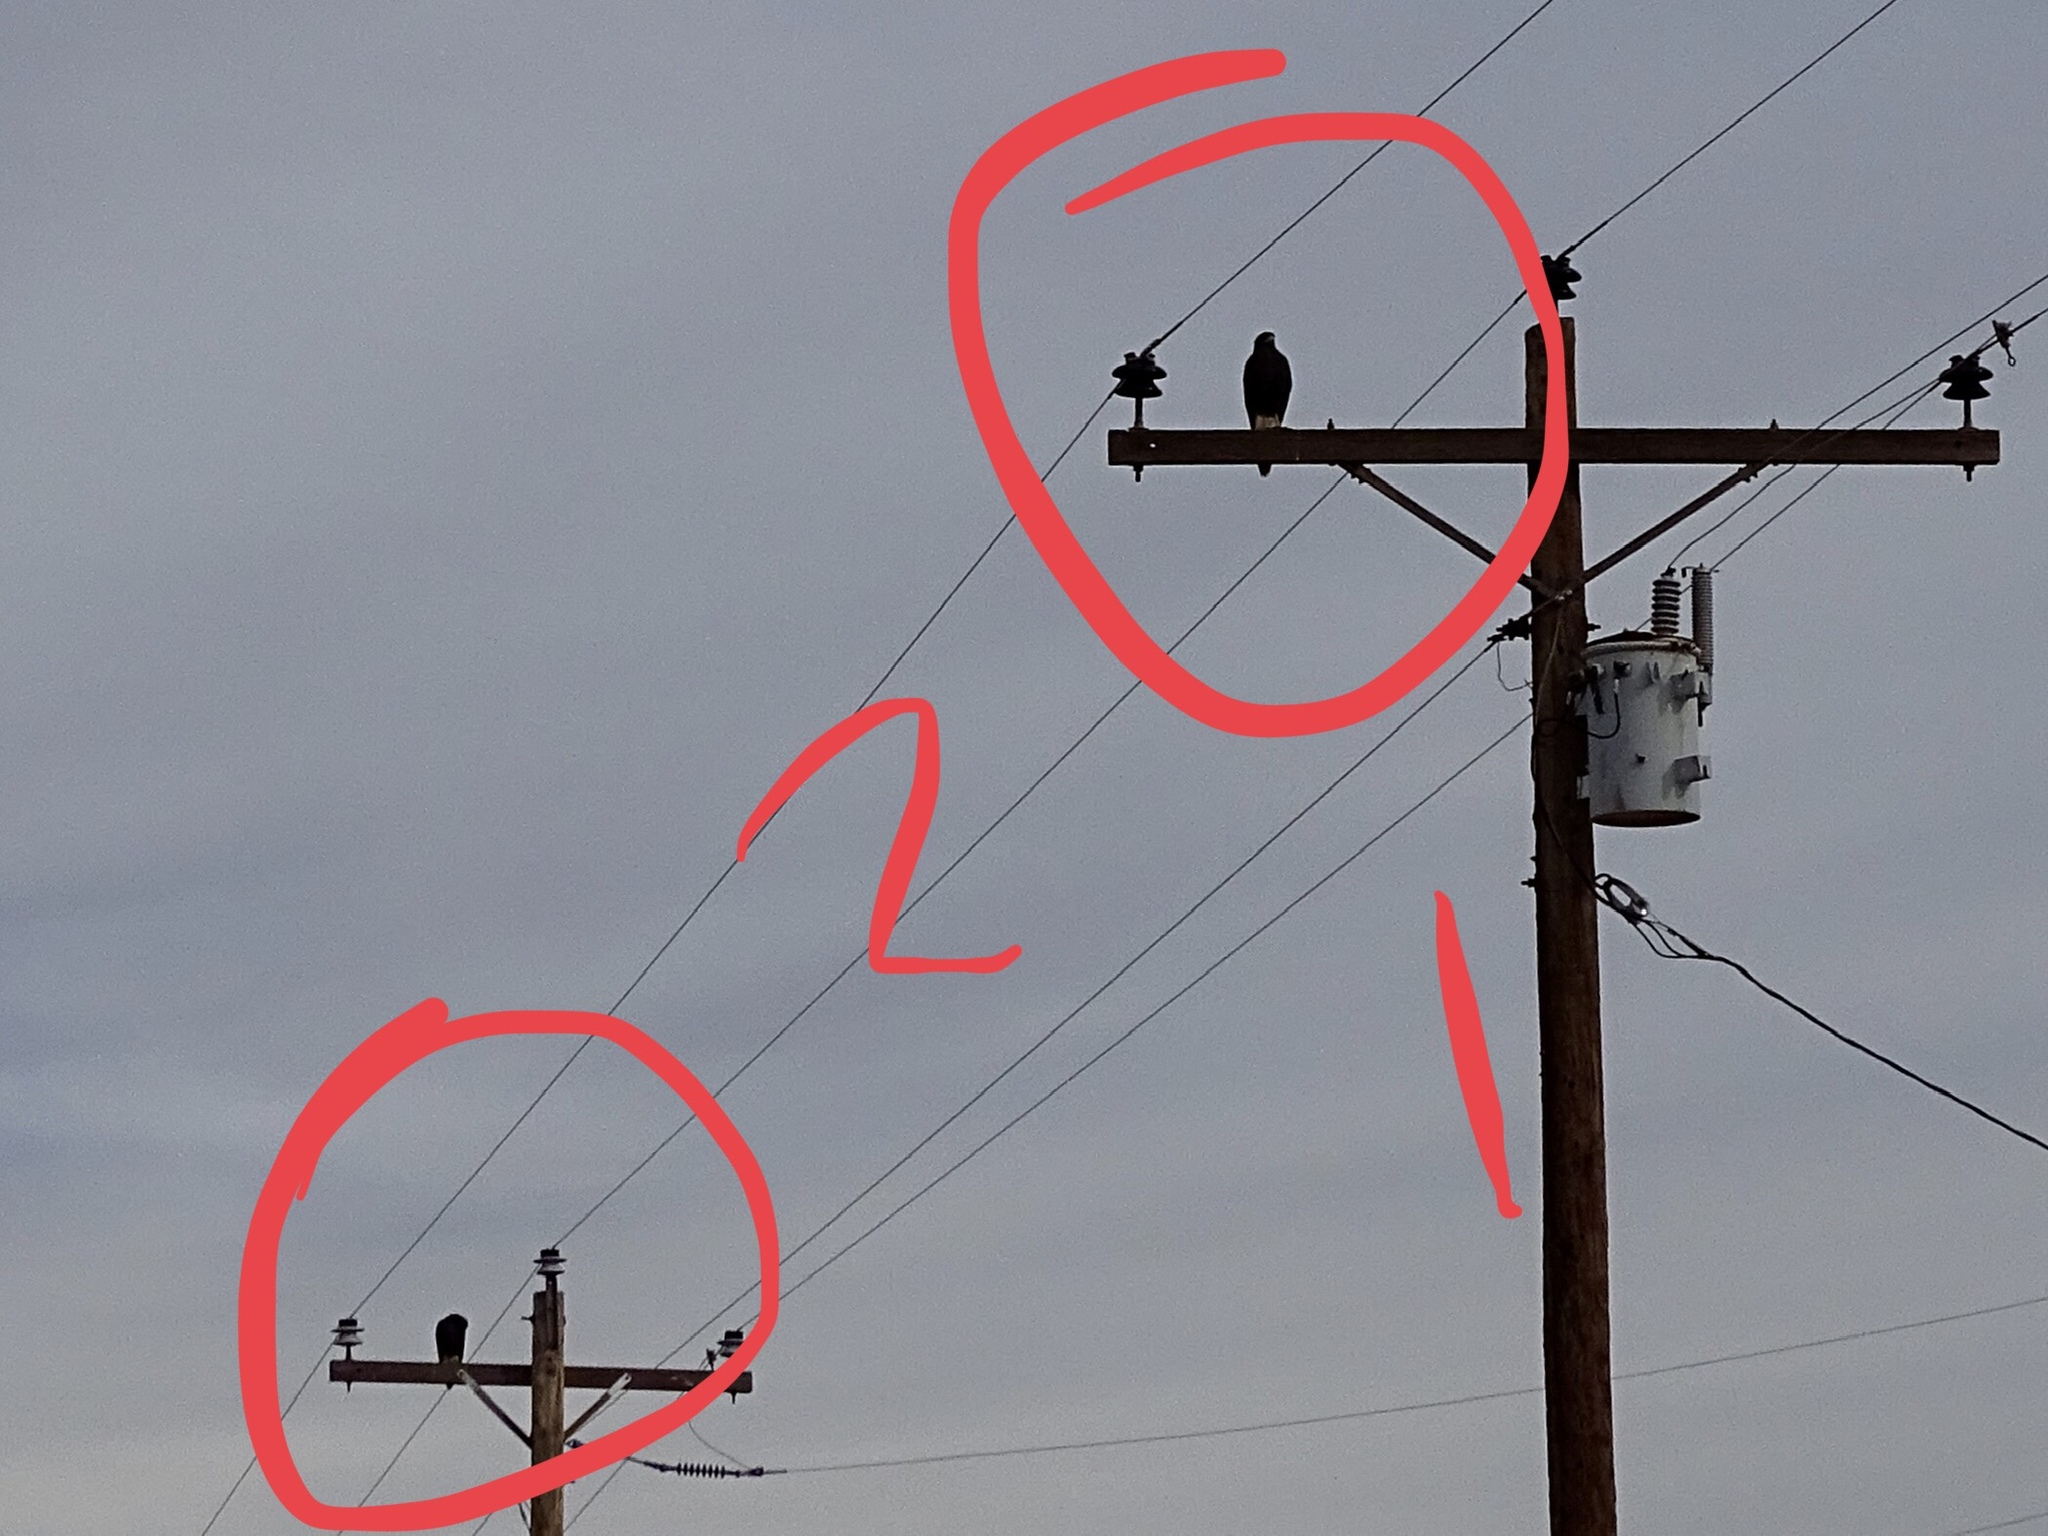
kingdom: Animalia
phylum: Chordata
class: Aves
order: Accipitriformes
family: Accipitridae
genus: Parabuteo
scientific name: Parabuteo unicinctus
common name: Harris's hawk
